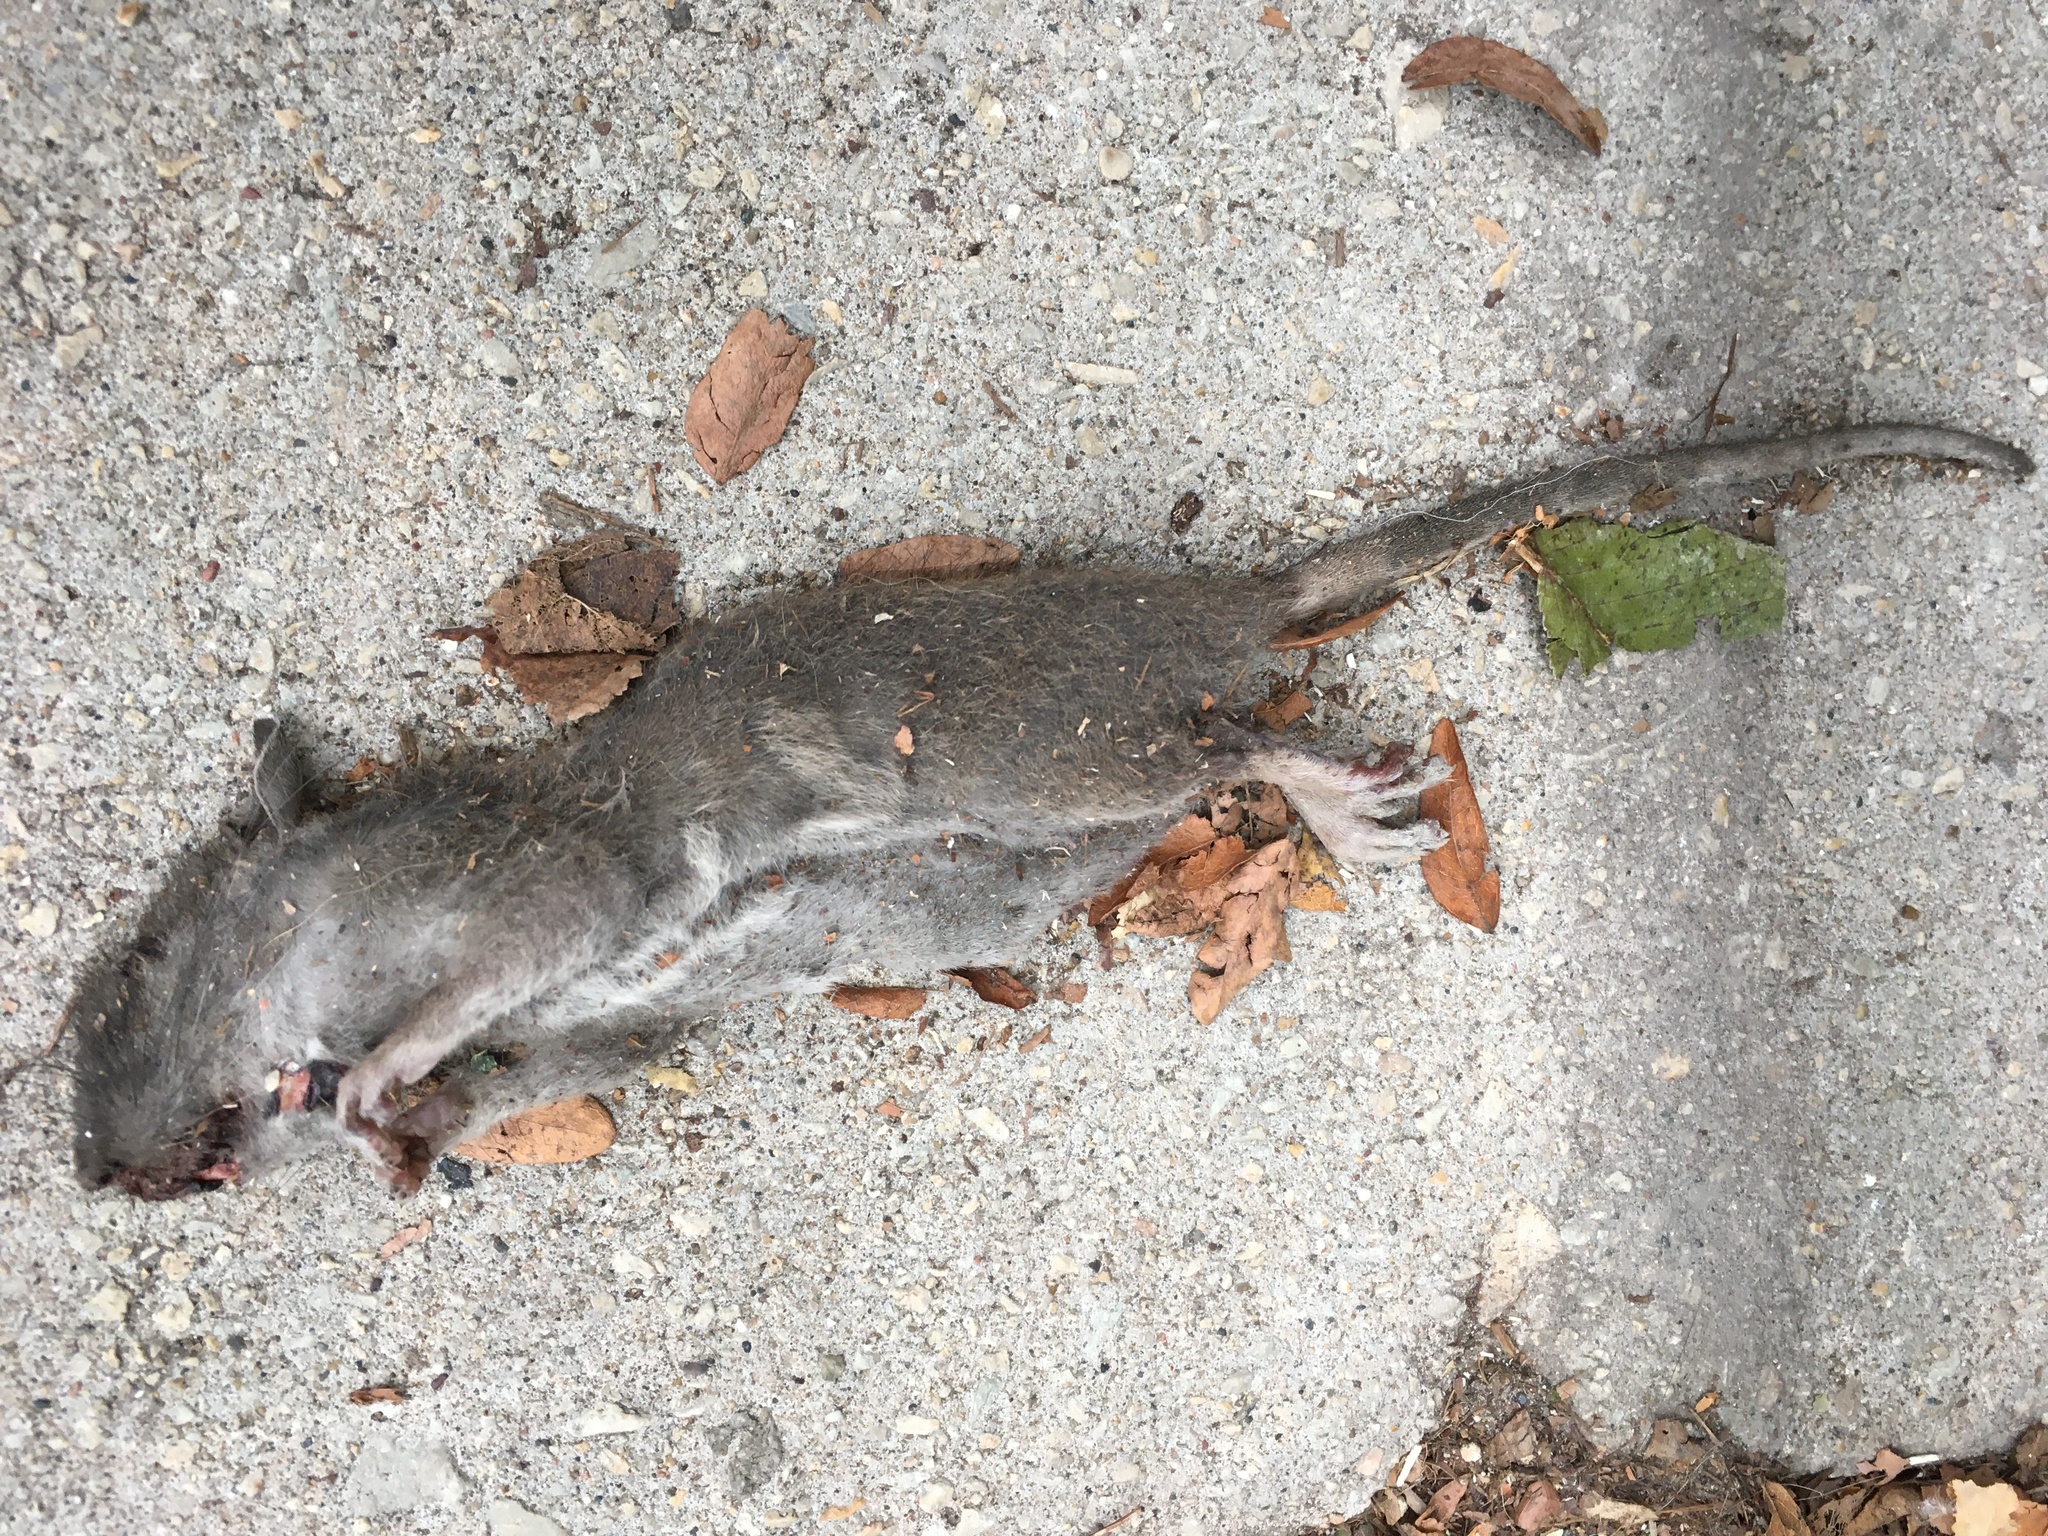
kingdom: Animalia
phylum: Chordata
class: Mammalia
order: Rodentia
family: Muridae
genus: Rattus
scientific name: Rattus norvegicus
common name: Brown rat
